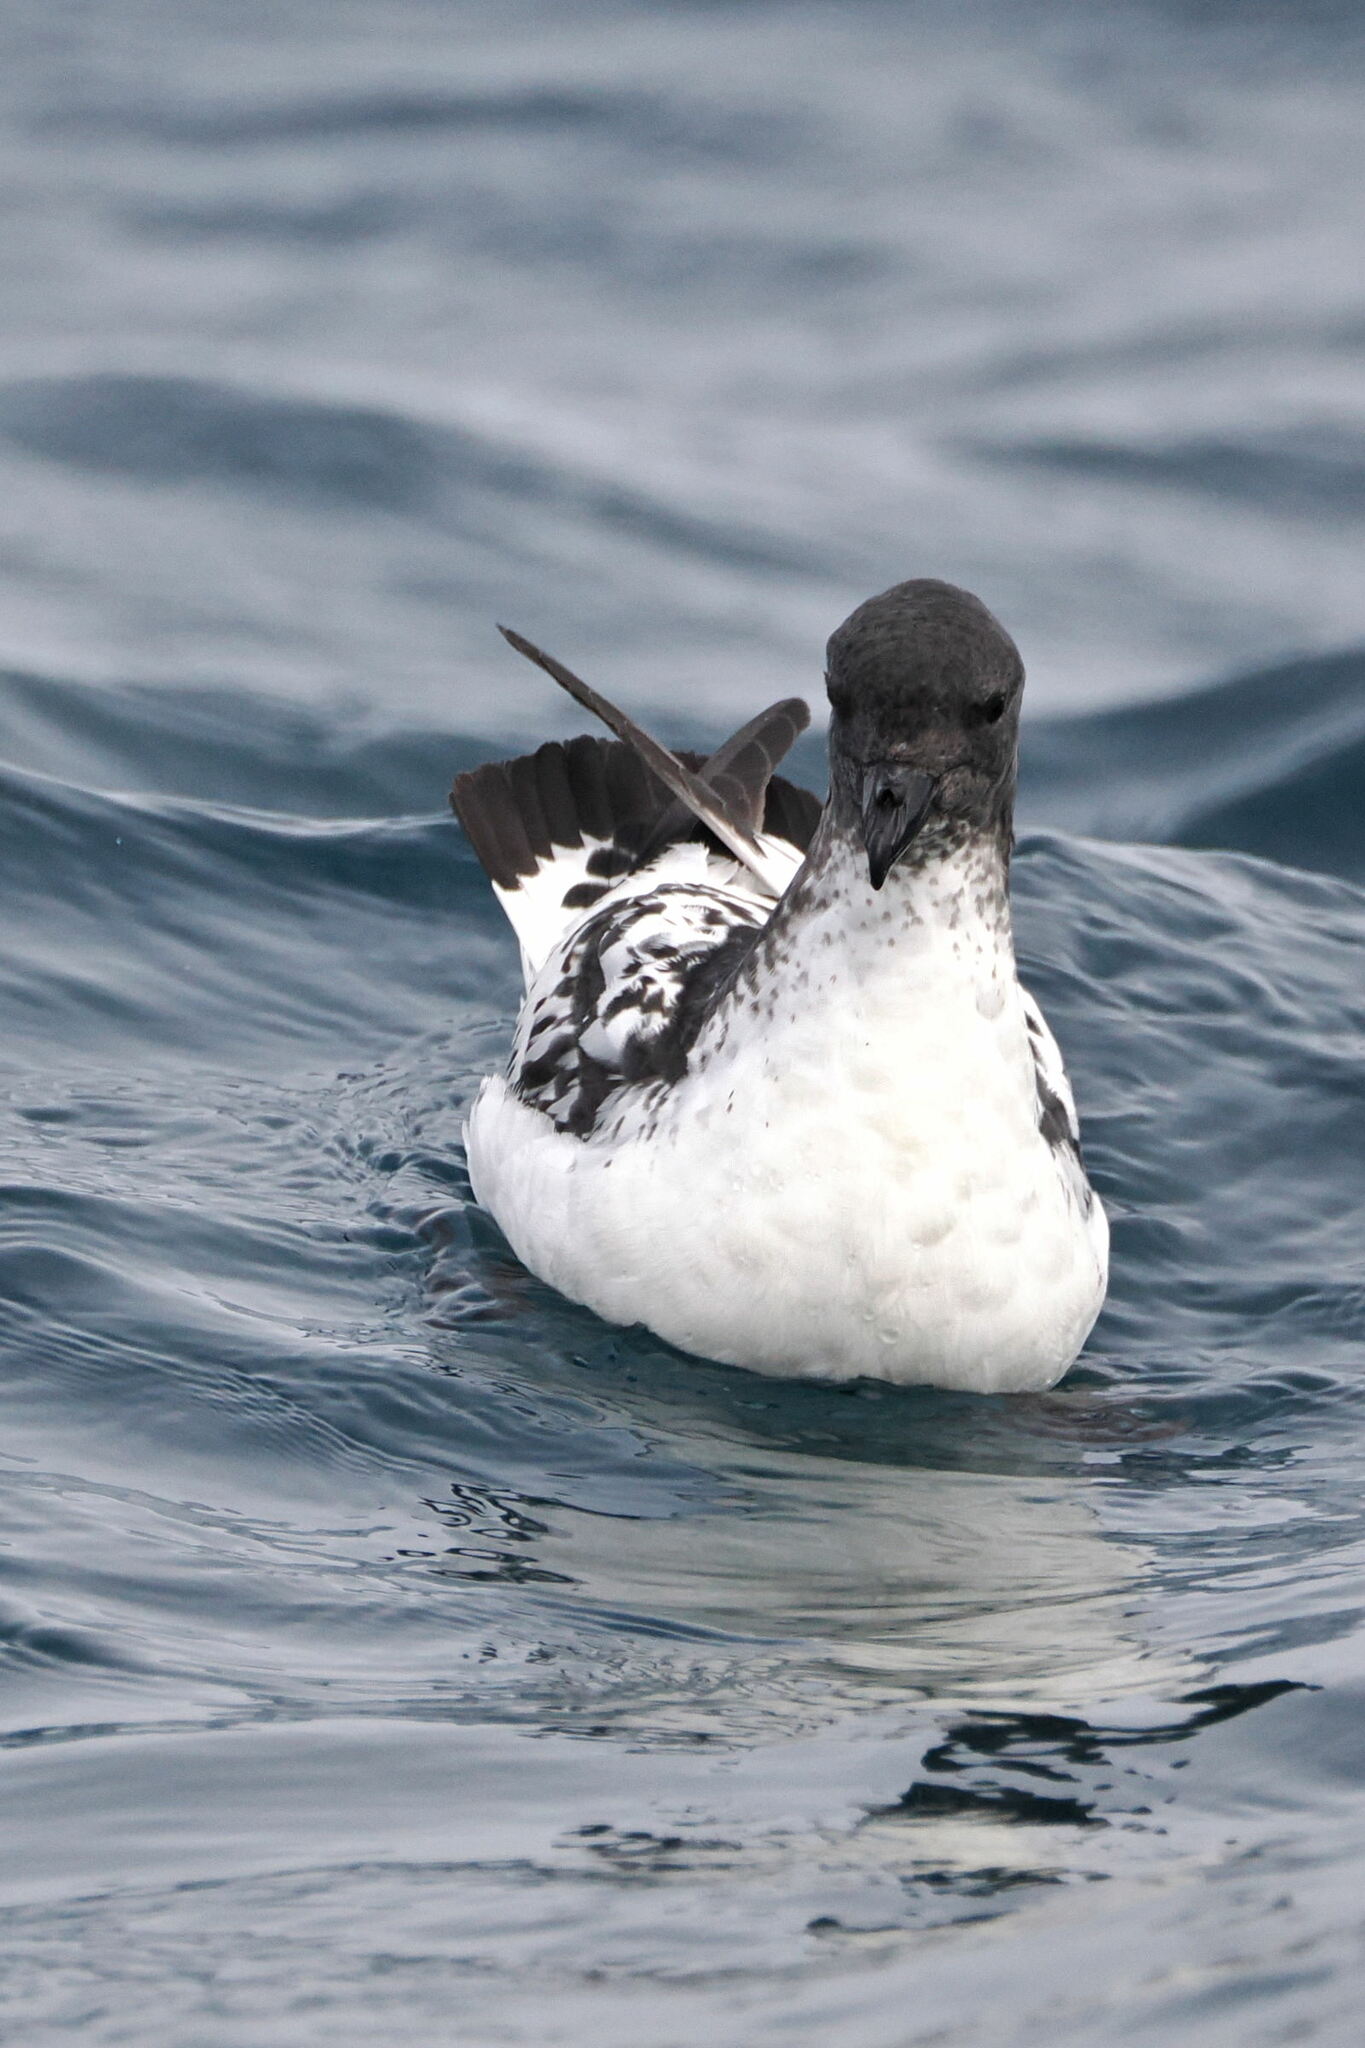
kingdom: Animalia
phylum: Chordata
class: Aves
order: Procellariiformes
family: Procellariidae
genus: Daption
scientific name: Daption capense
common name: Cape petrel
